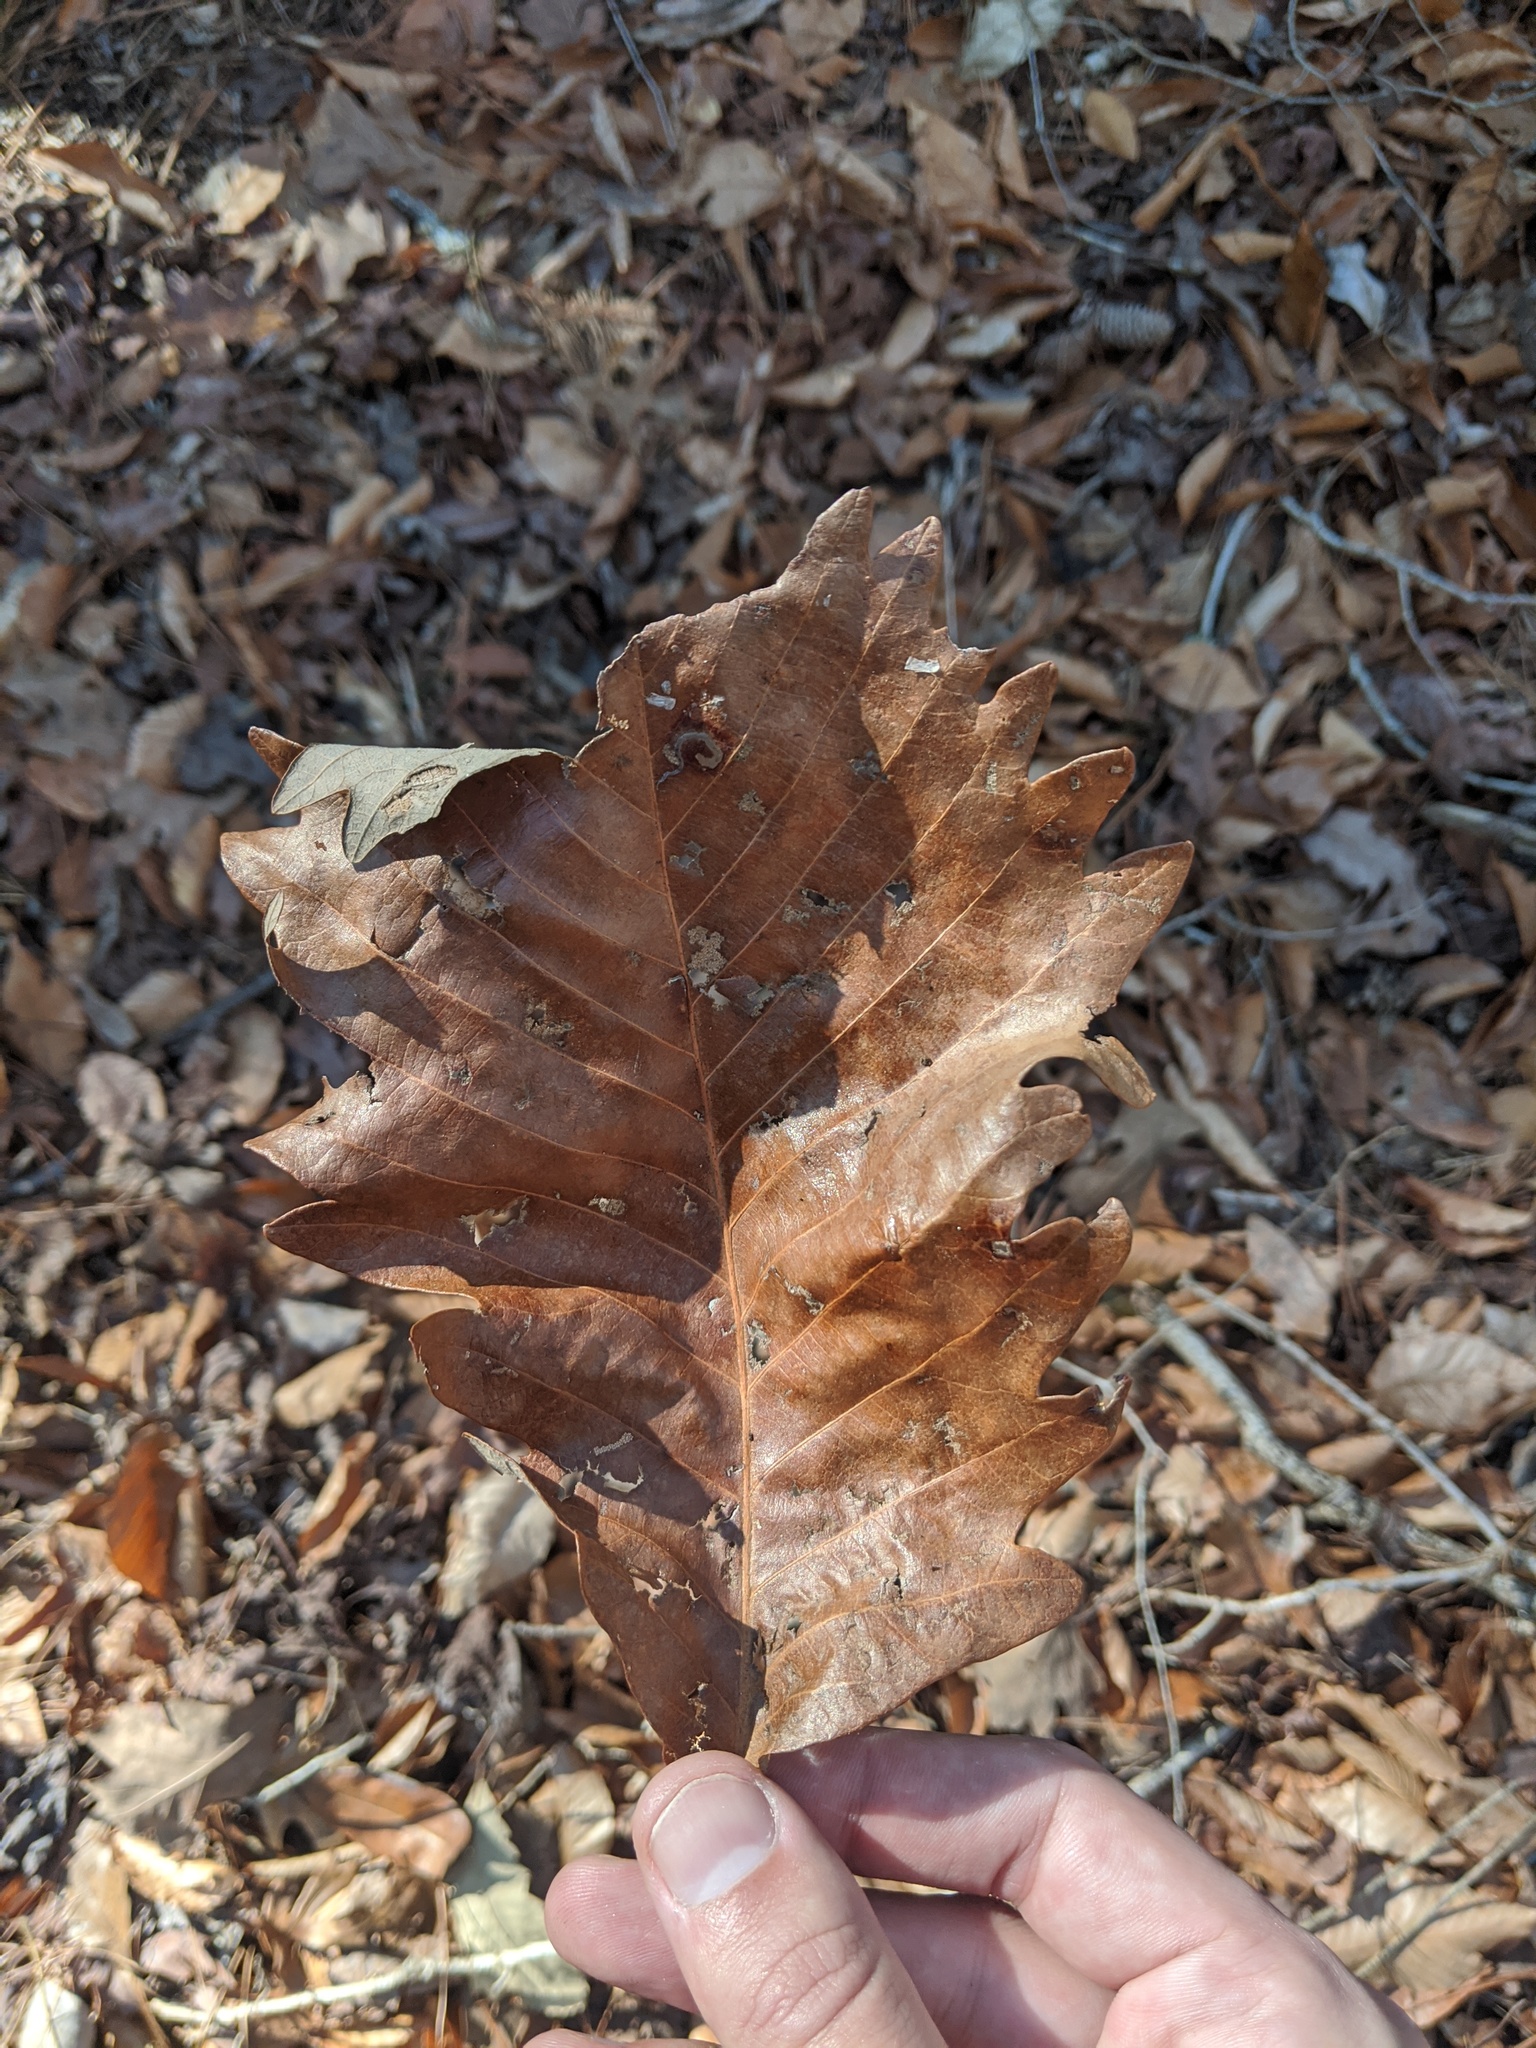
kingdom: Plantae
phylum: Tracheophyta
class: Magnoliopsida
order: Fagales
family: Fagaceae
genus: Quercus
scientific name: Quercus michauxii
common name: Swamp chestnut oak
